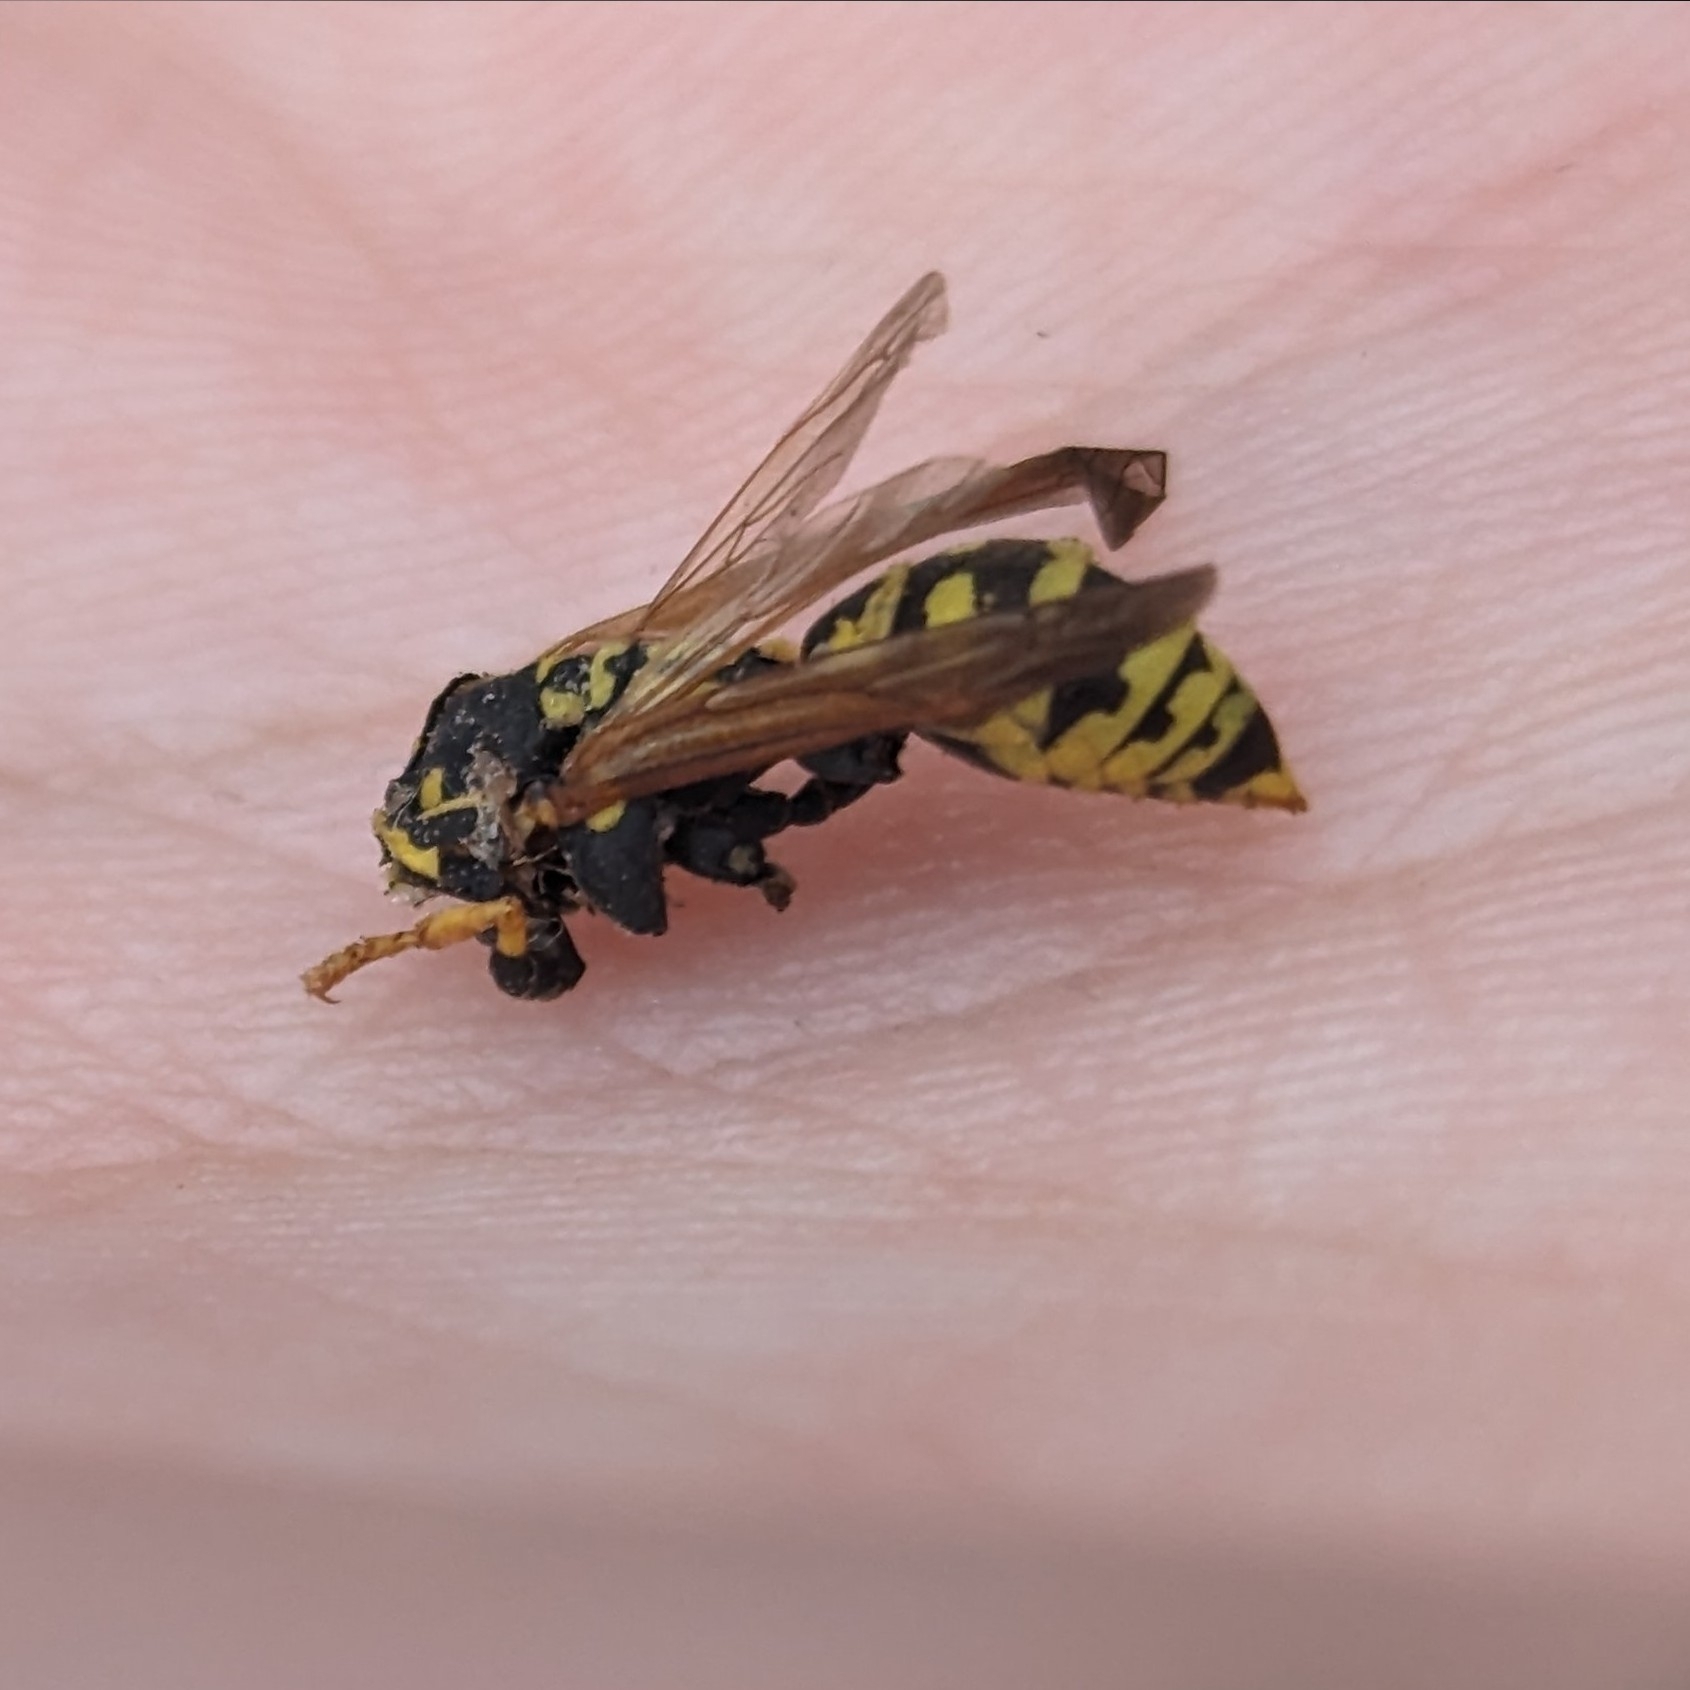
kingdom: Animalia
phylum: Arthropoda
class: Insecta
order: Hymenoptera
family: Eumenidae
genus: Polistes
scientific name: Polistes dominula
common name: Paper wasp
